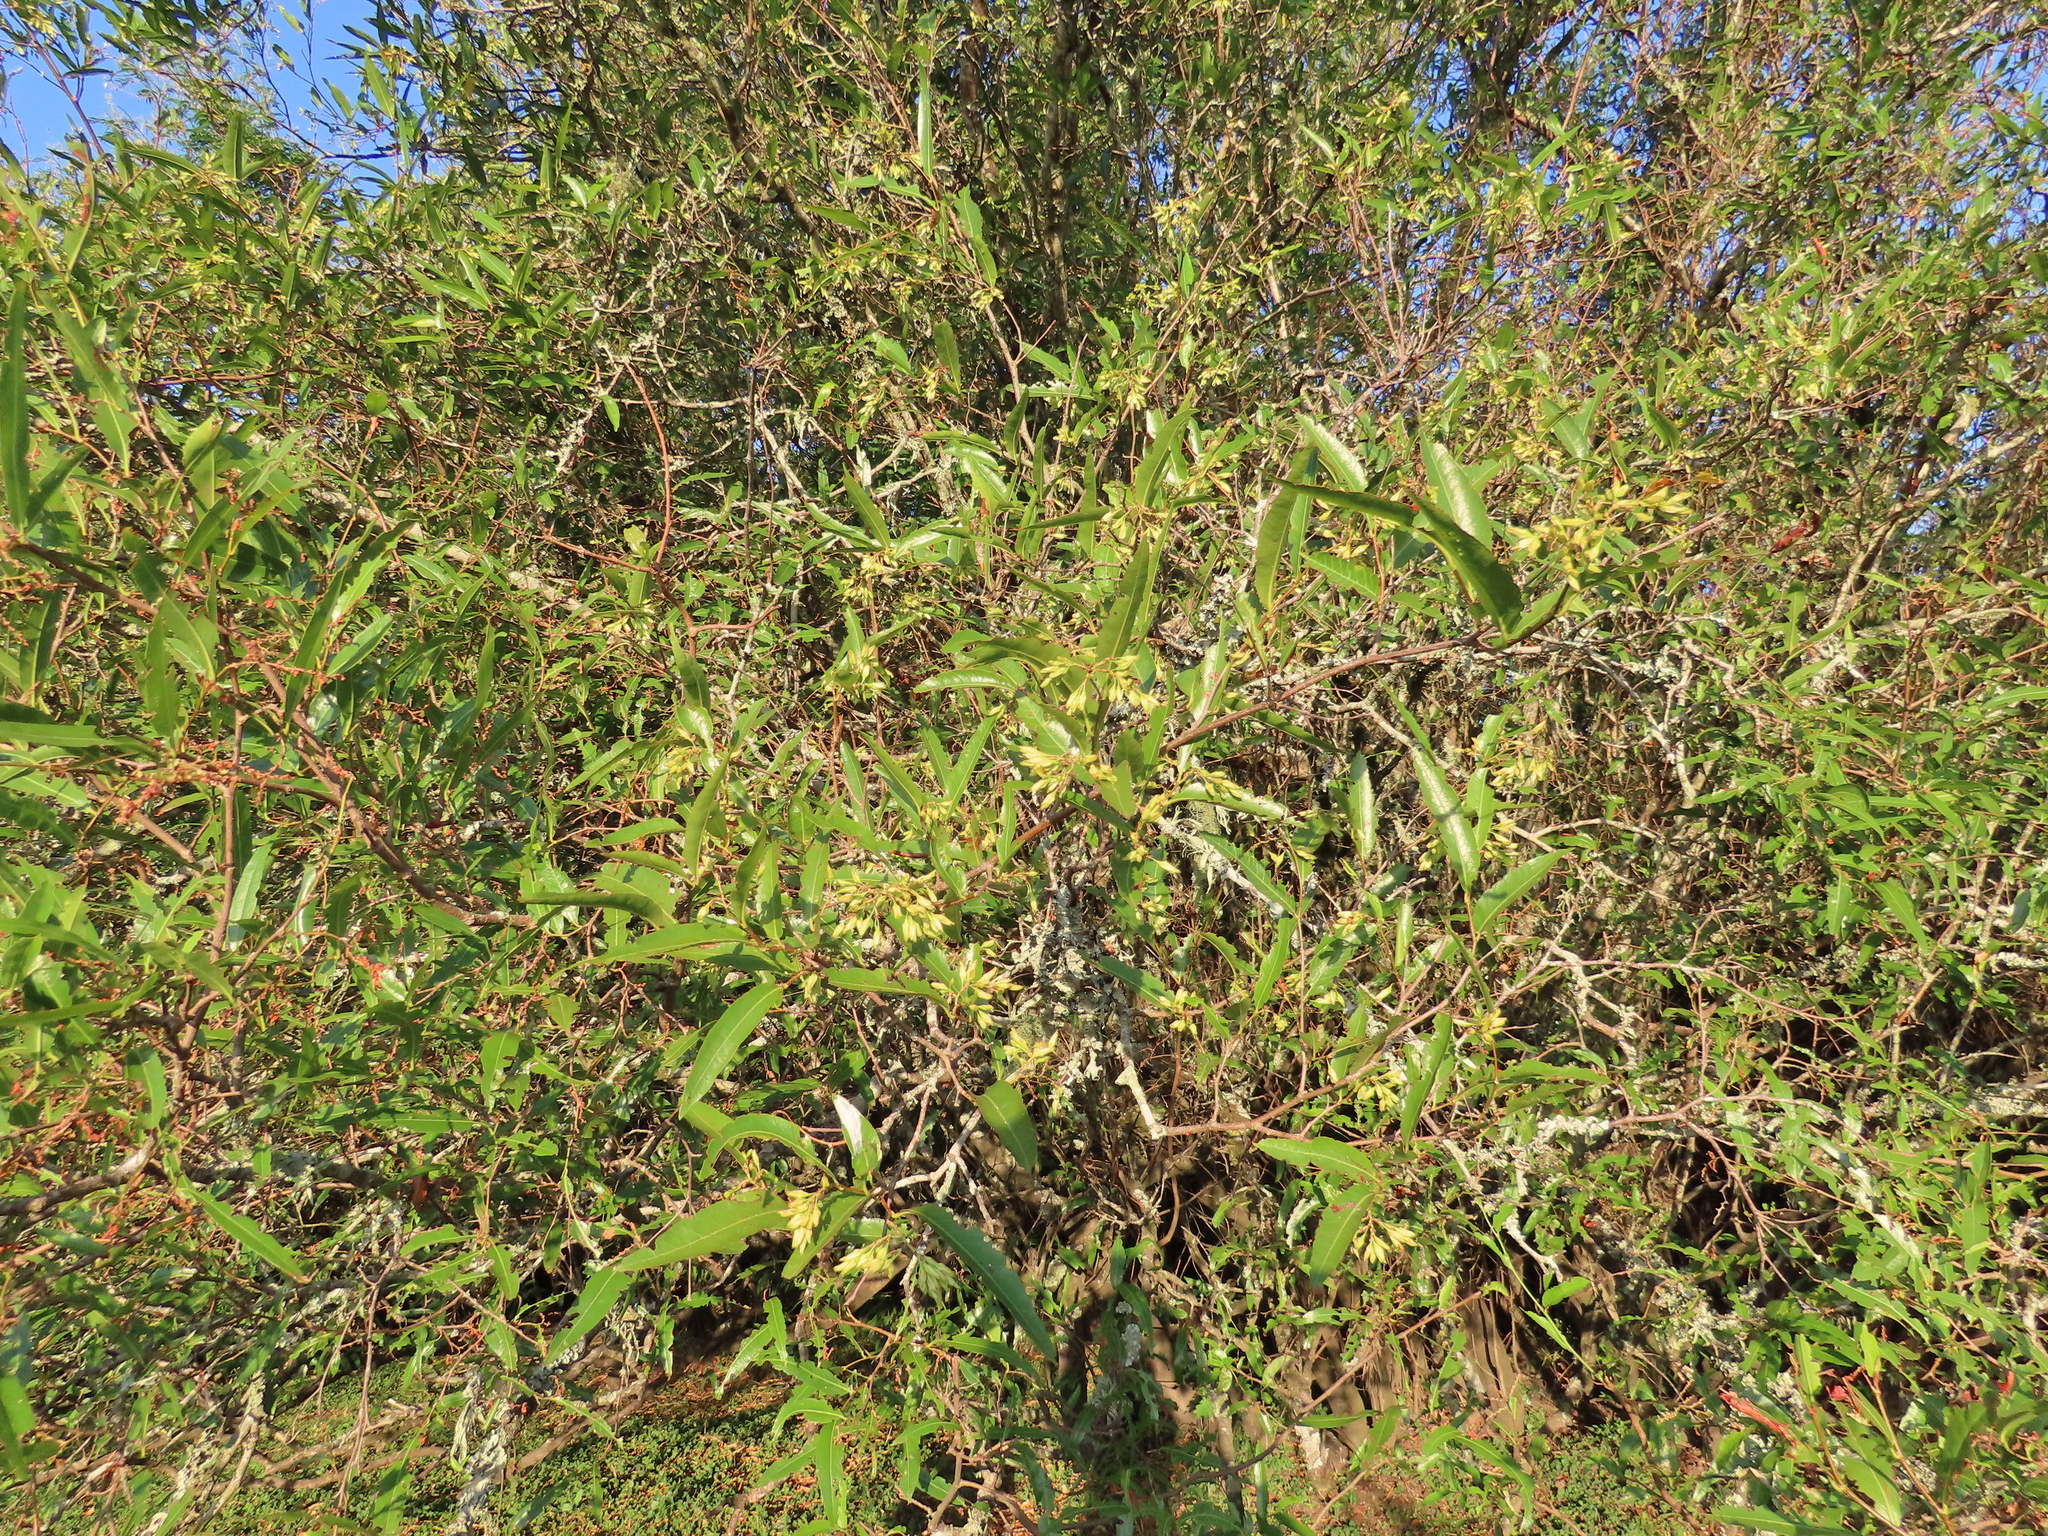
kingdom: Plantae
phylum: Tracheophyta
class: Magnoliopsida
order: Caryophyllales
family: Polygonaceae
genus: Ruprechtia
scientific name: Ruprechtia salicifolia
